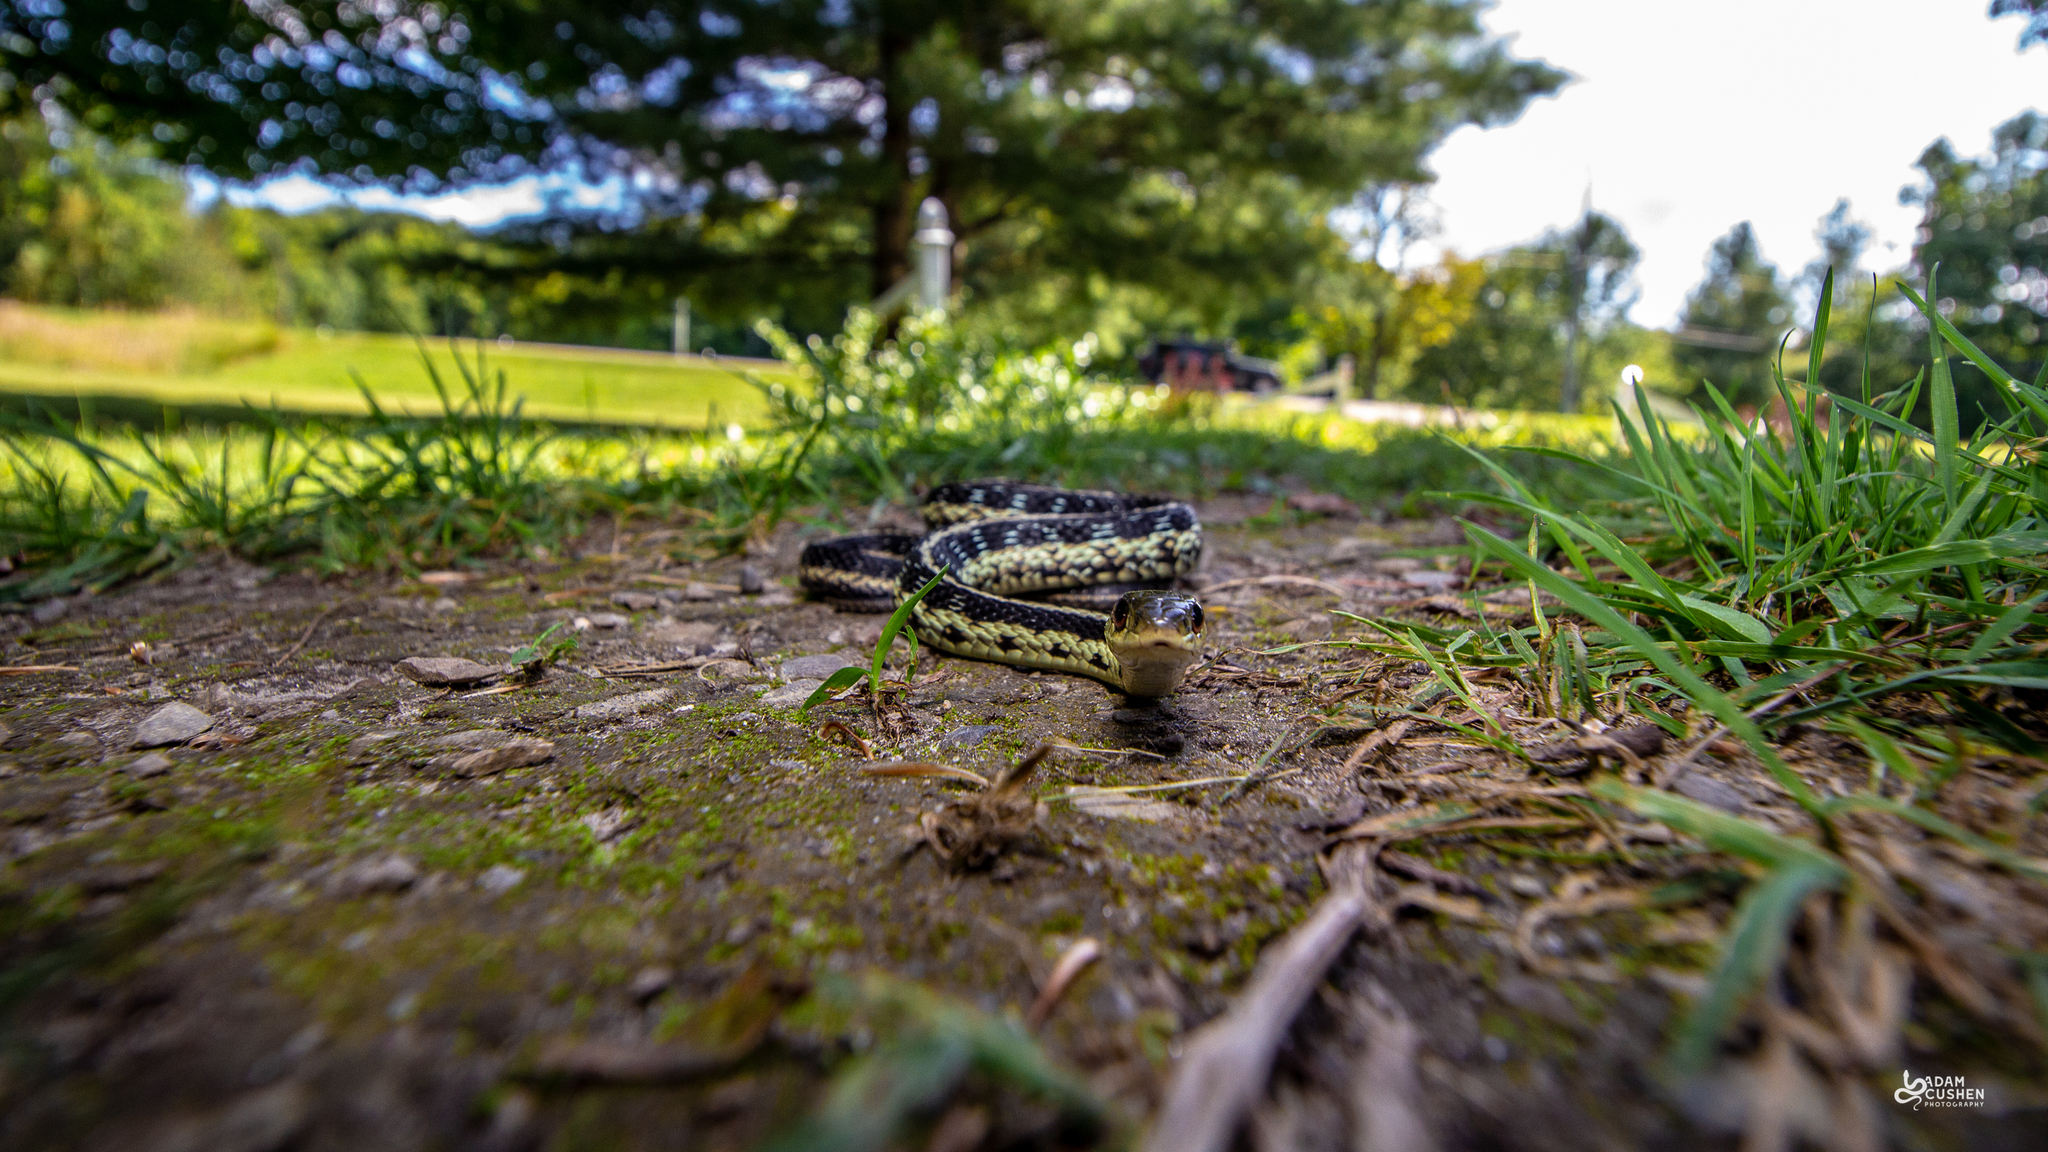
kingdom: Animalia
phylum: Chordata
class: Squamata
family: Colubridae
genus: Thamnophis
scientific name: Thamnophis sirtalis
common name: Common garter snake
